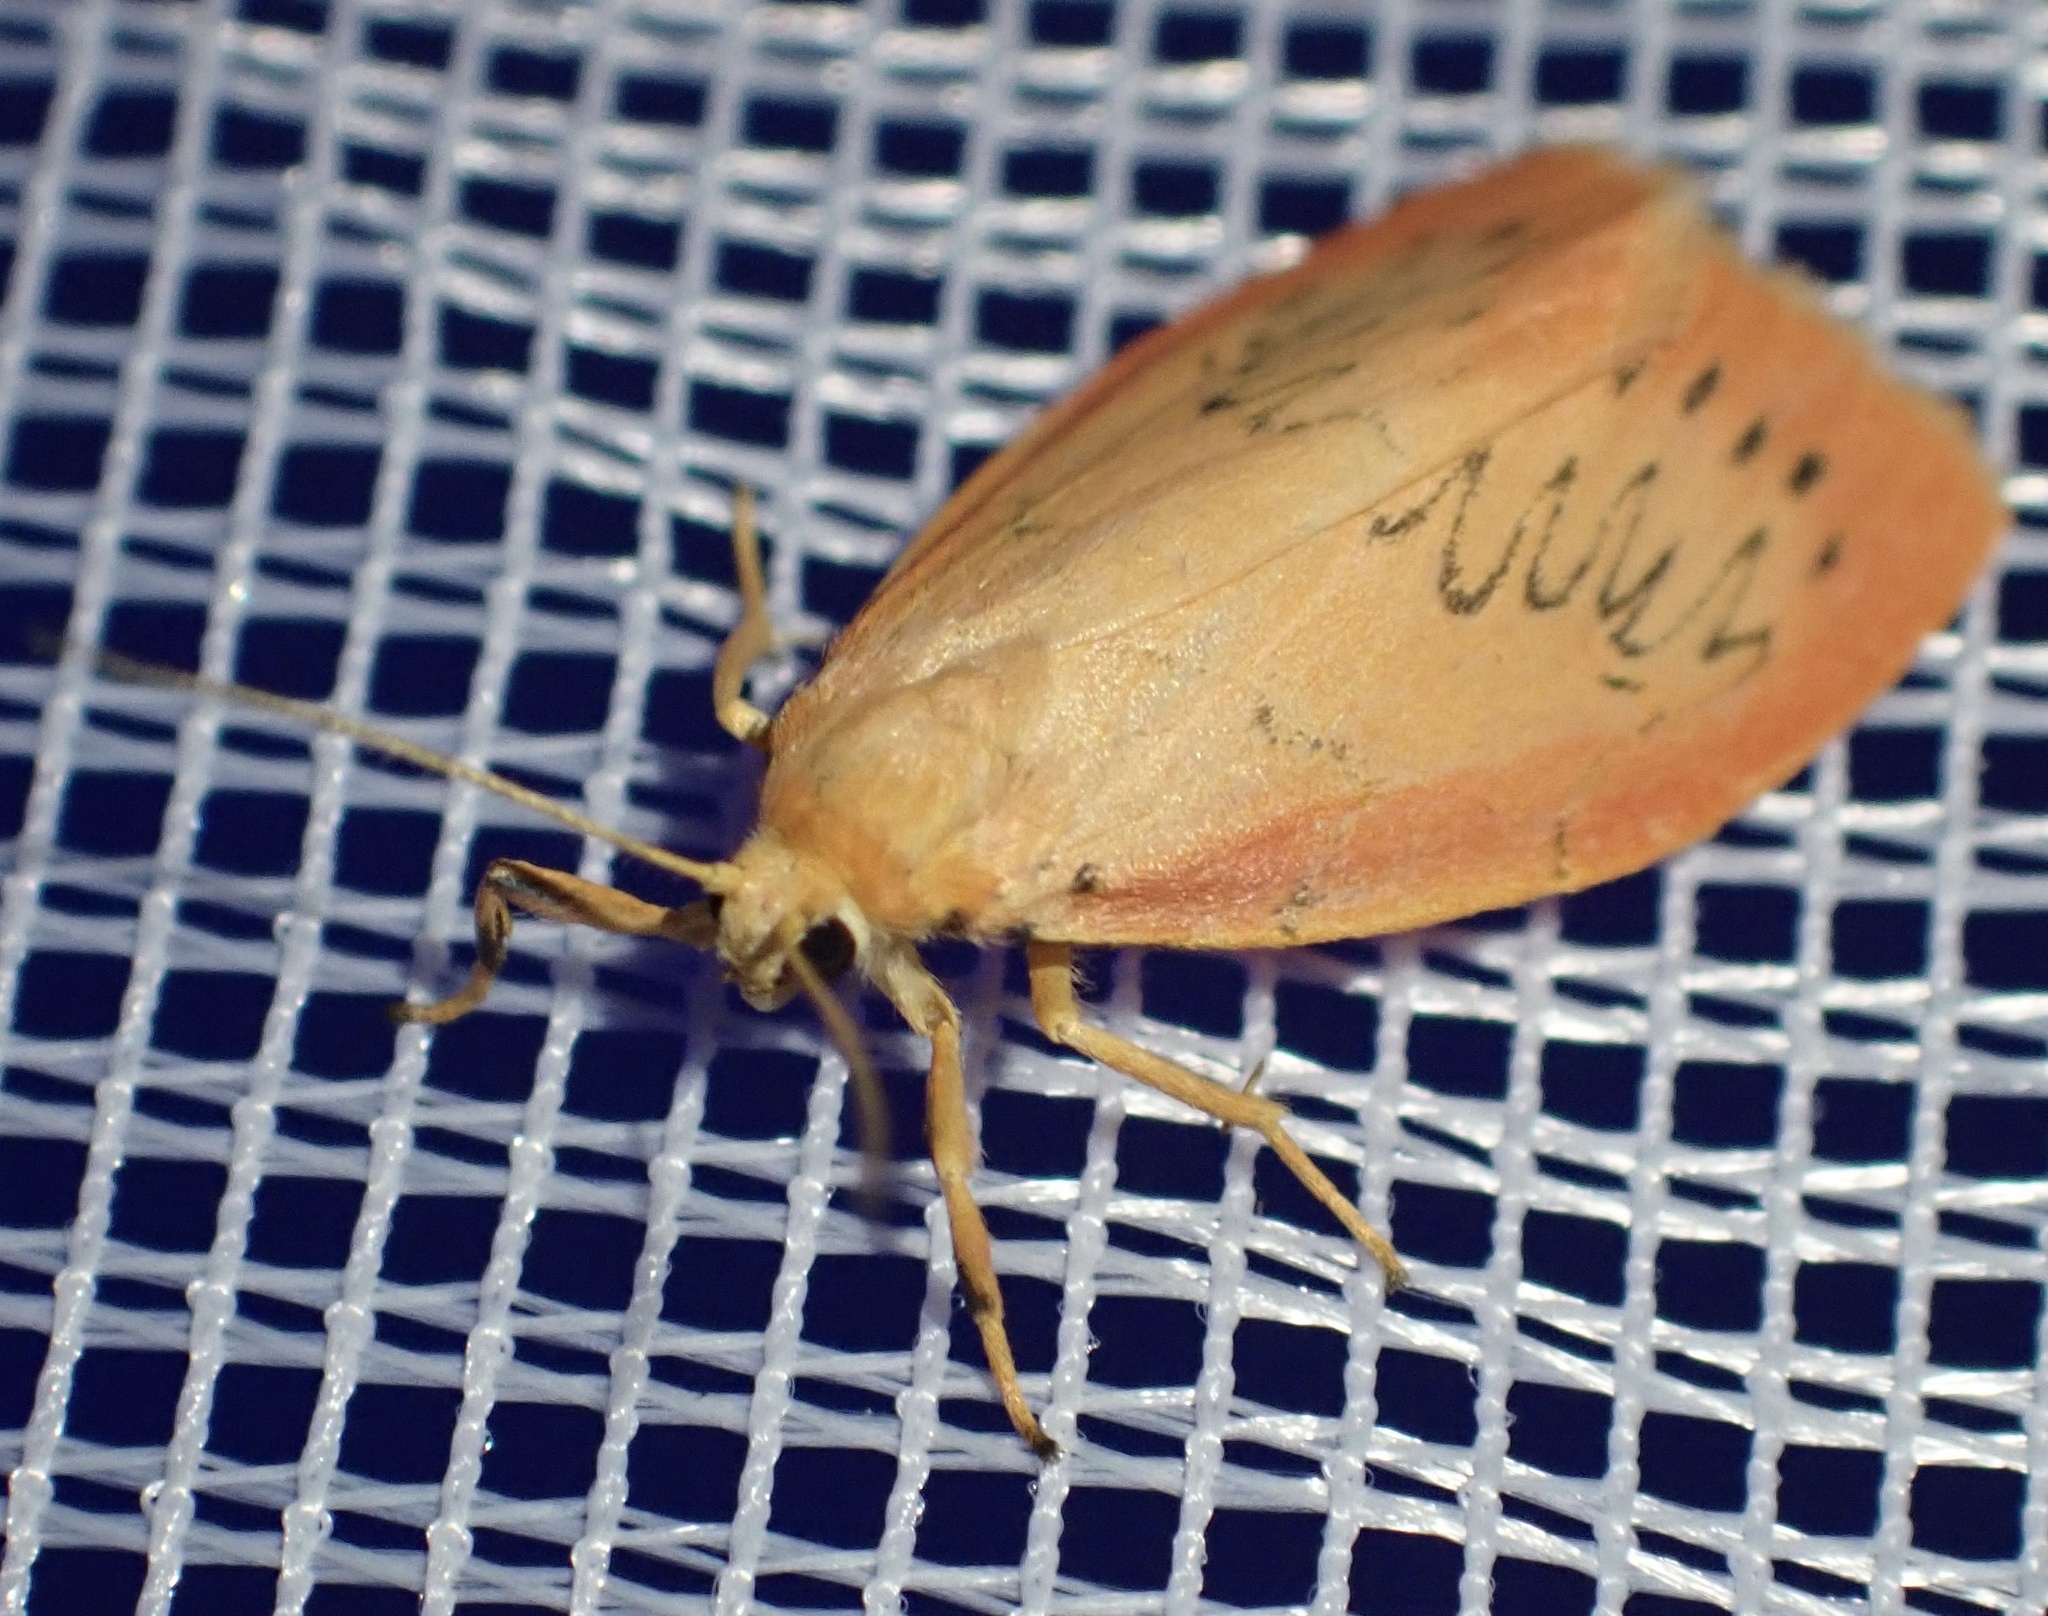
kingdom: Animalia
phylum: Arthropoda
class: Insecta
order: Lepidoptera
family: Erebidae
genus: Miltochrista
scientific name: Miltochrista miniata
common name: Rosy footman
